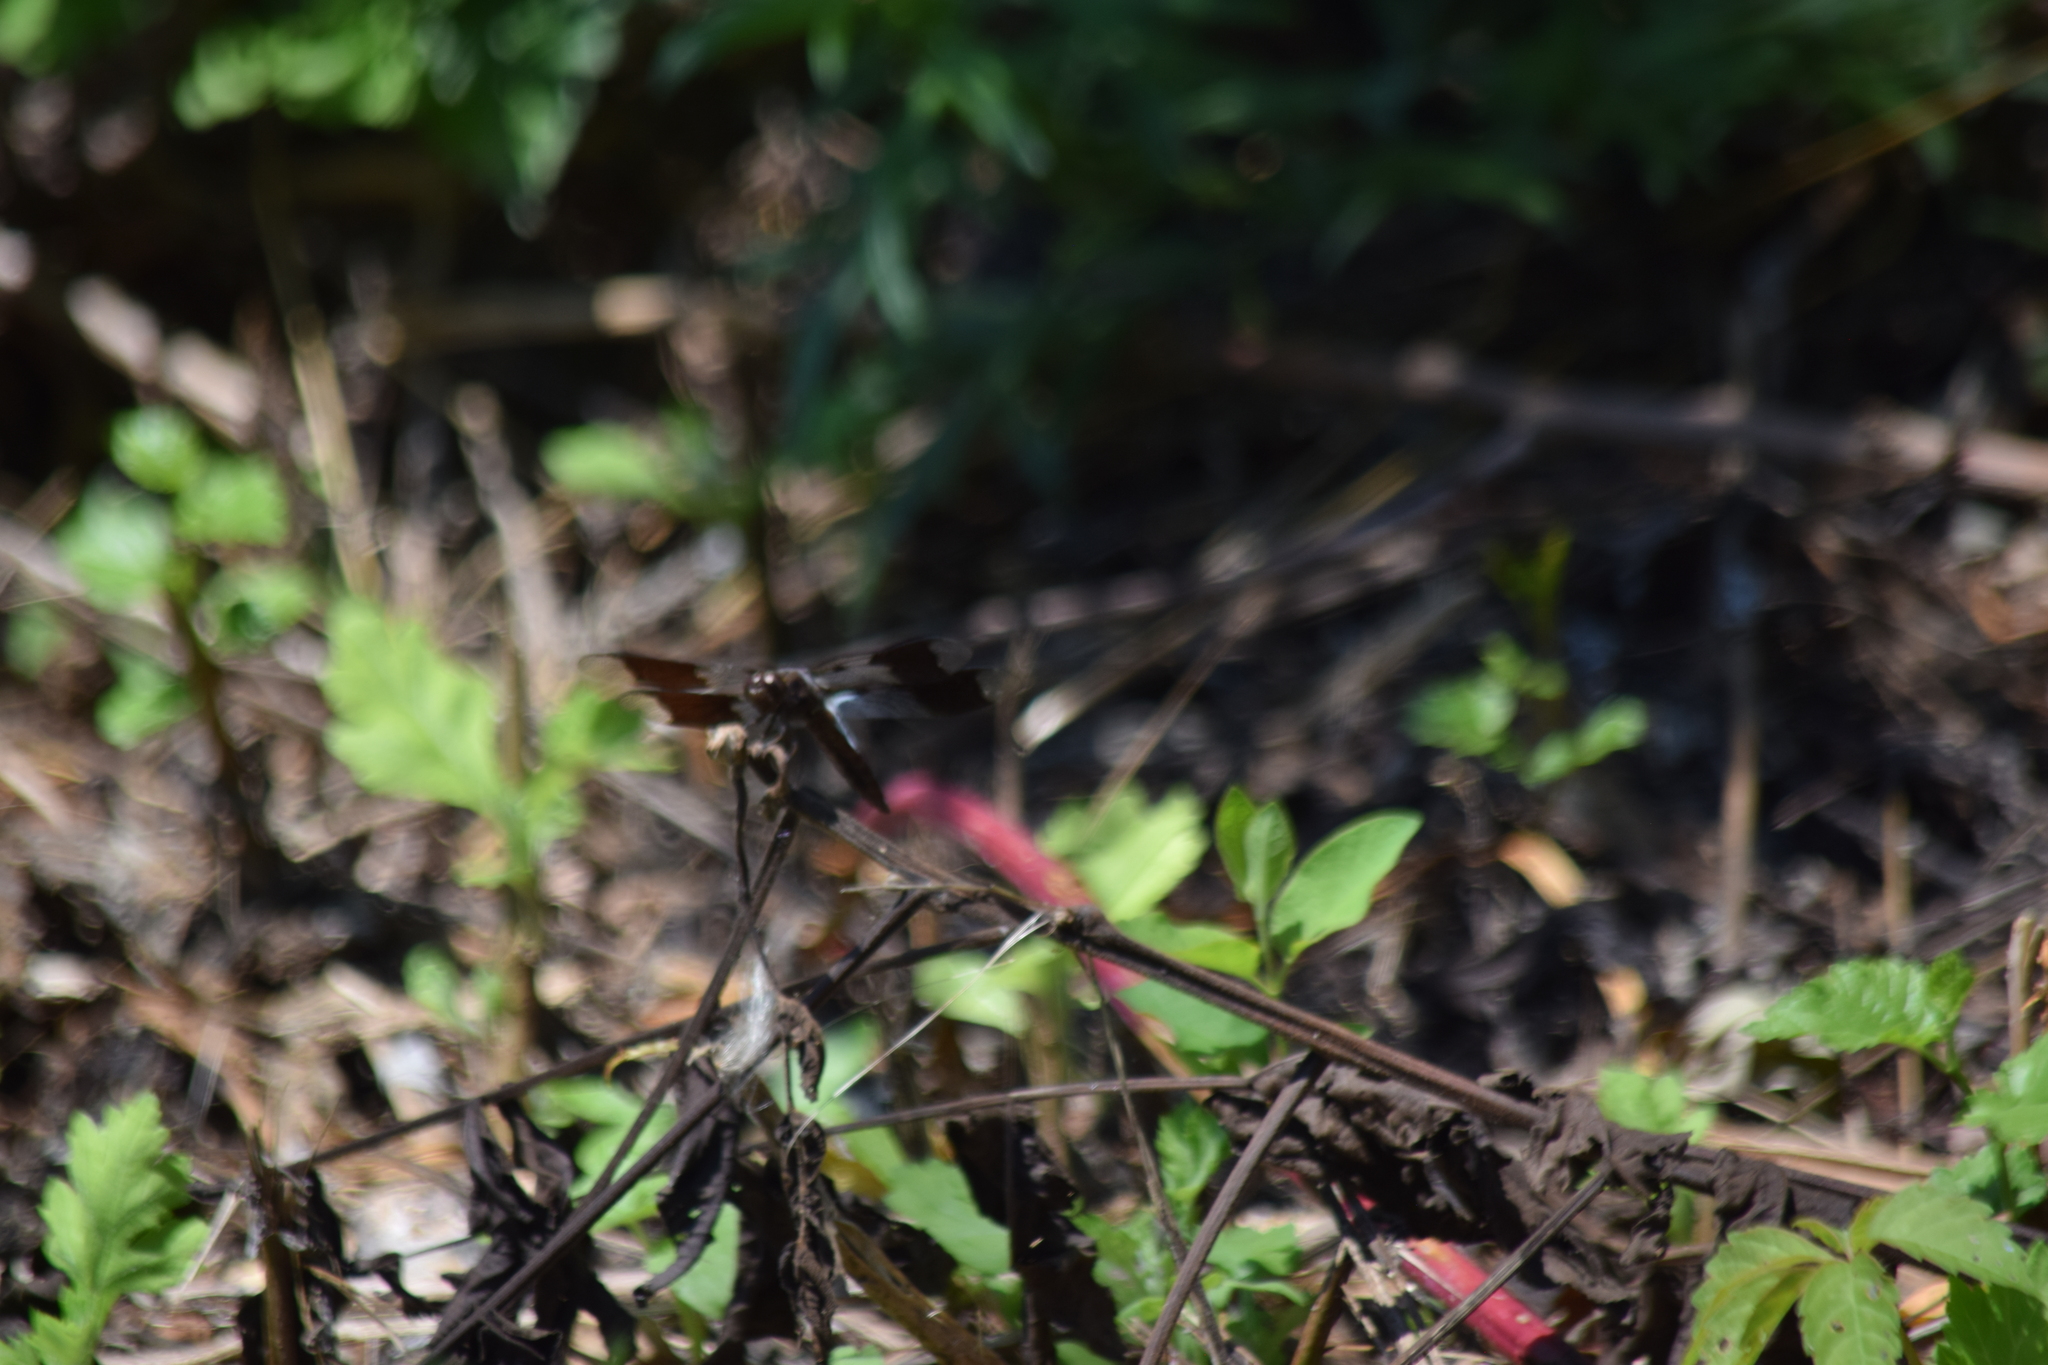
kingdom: Animalia
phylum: Arthropoda
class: Insecta
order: Odonata
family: Libellulidae
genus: Plathemis
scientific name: Plathemis lydia
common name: Common whitetail
